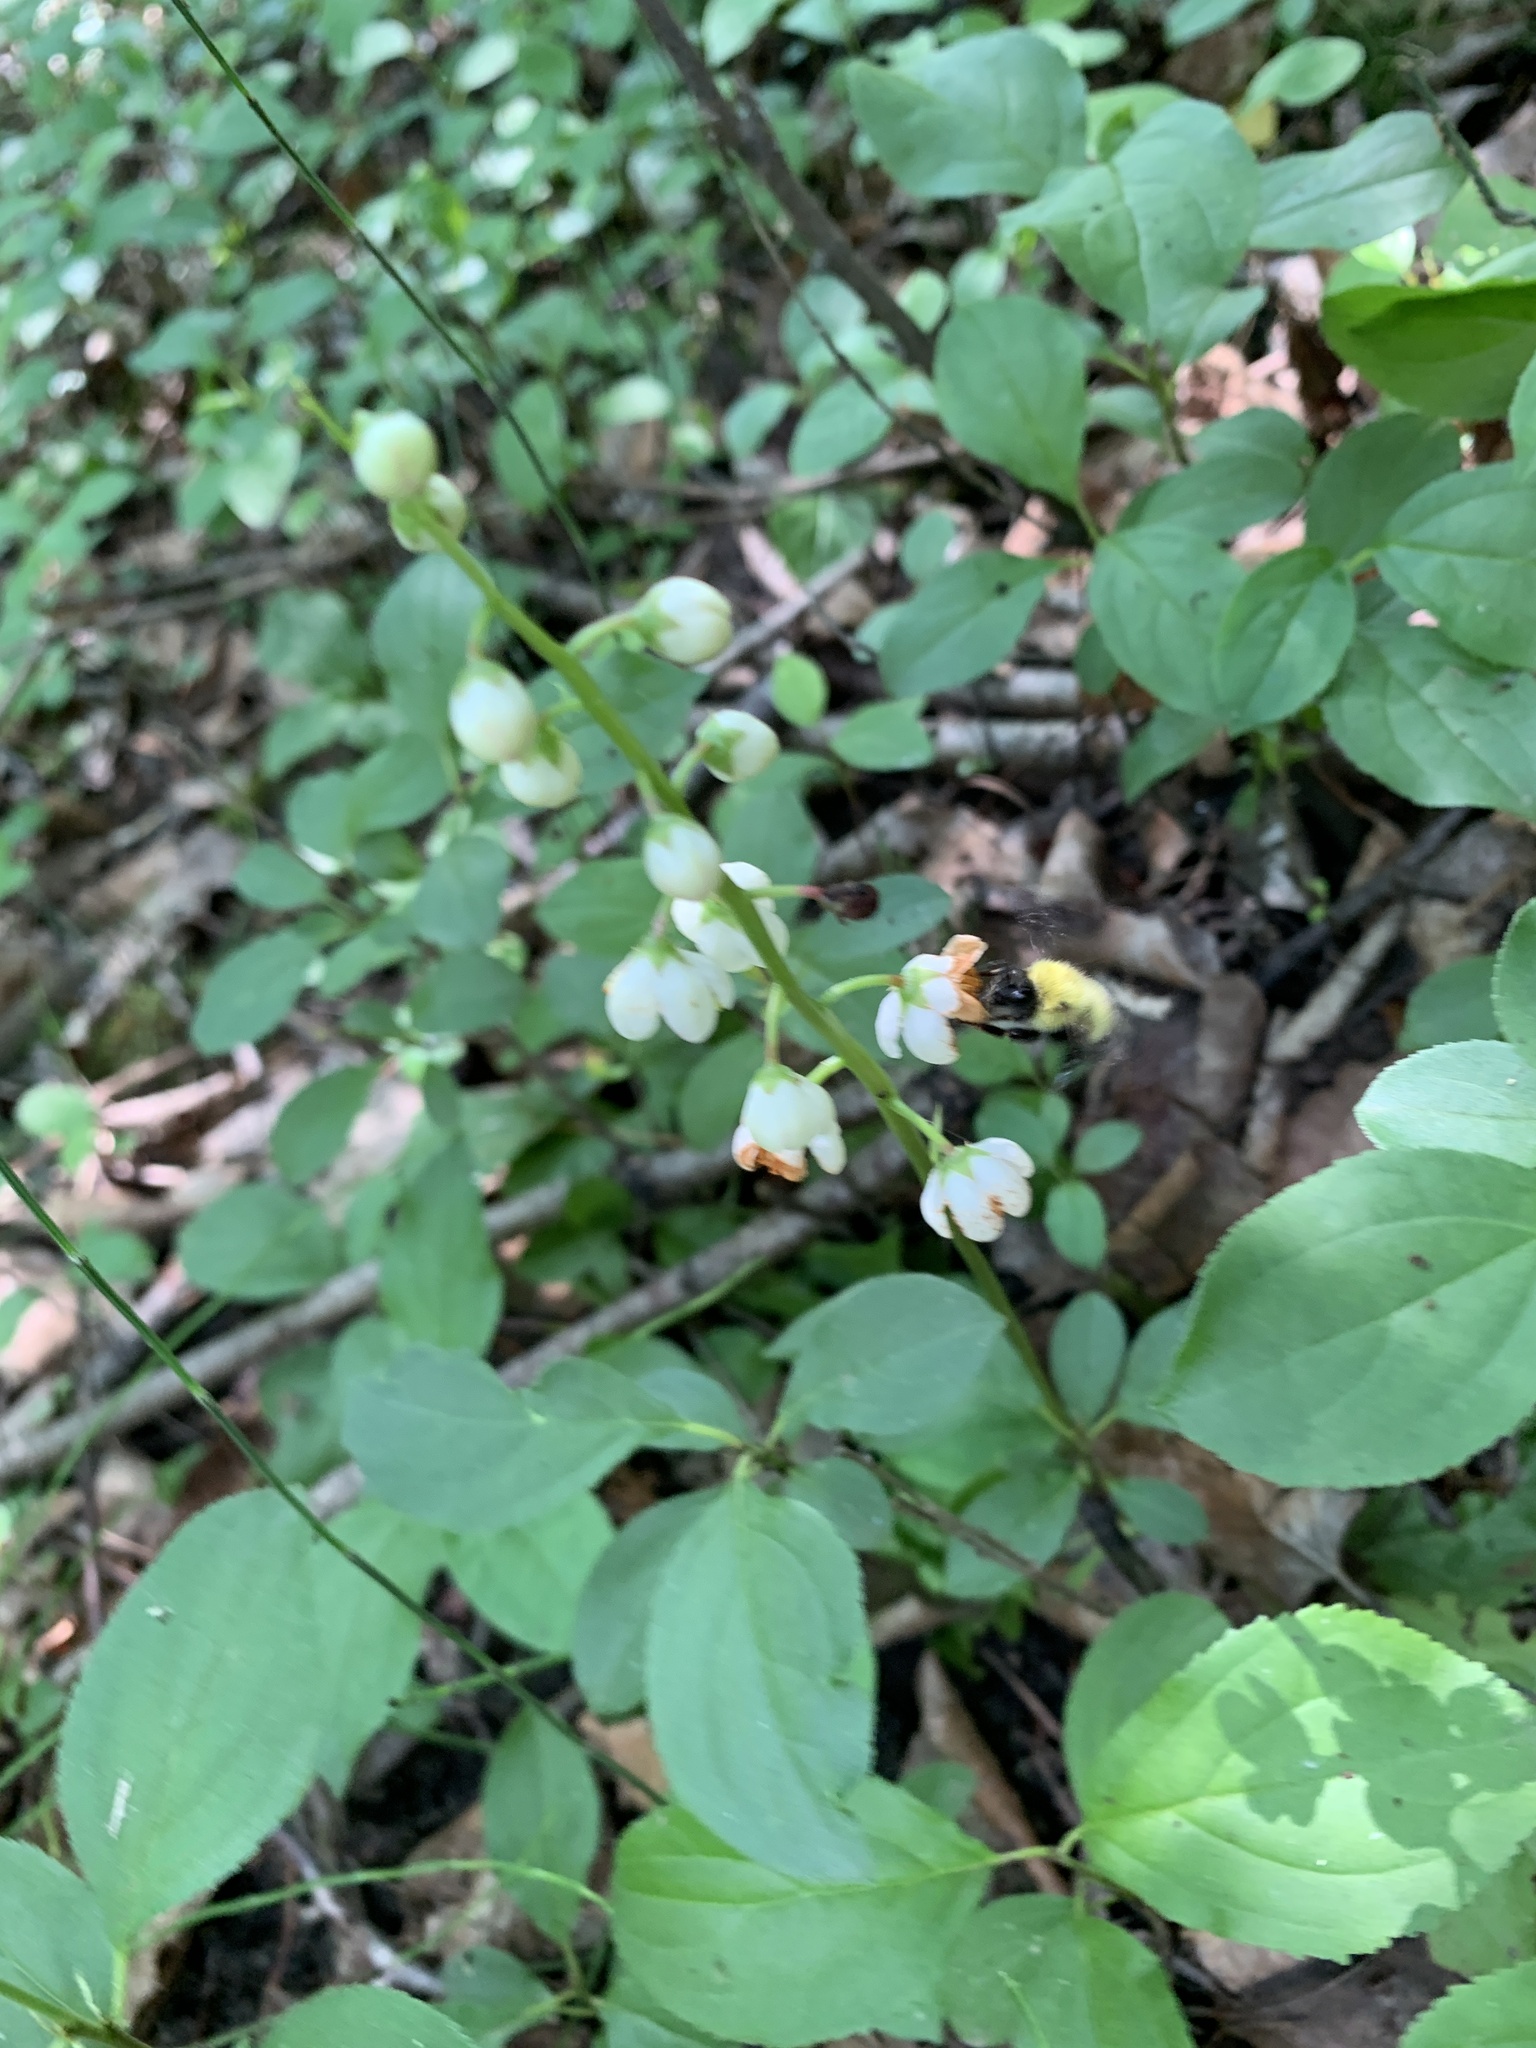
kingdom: Plantae
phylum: Tracheophyta
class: Magnoliopsida
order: Ericales
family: Ericaceae
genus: Pyrola
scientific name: Pyrola elliptica
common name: Shinleaf
